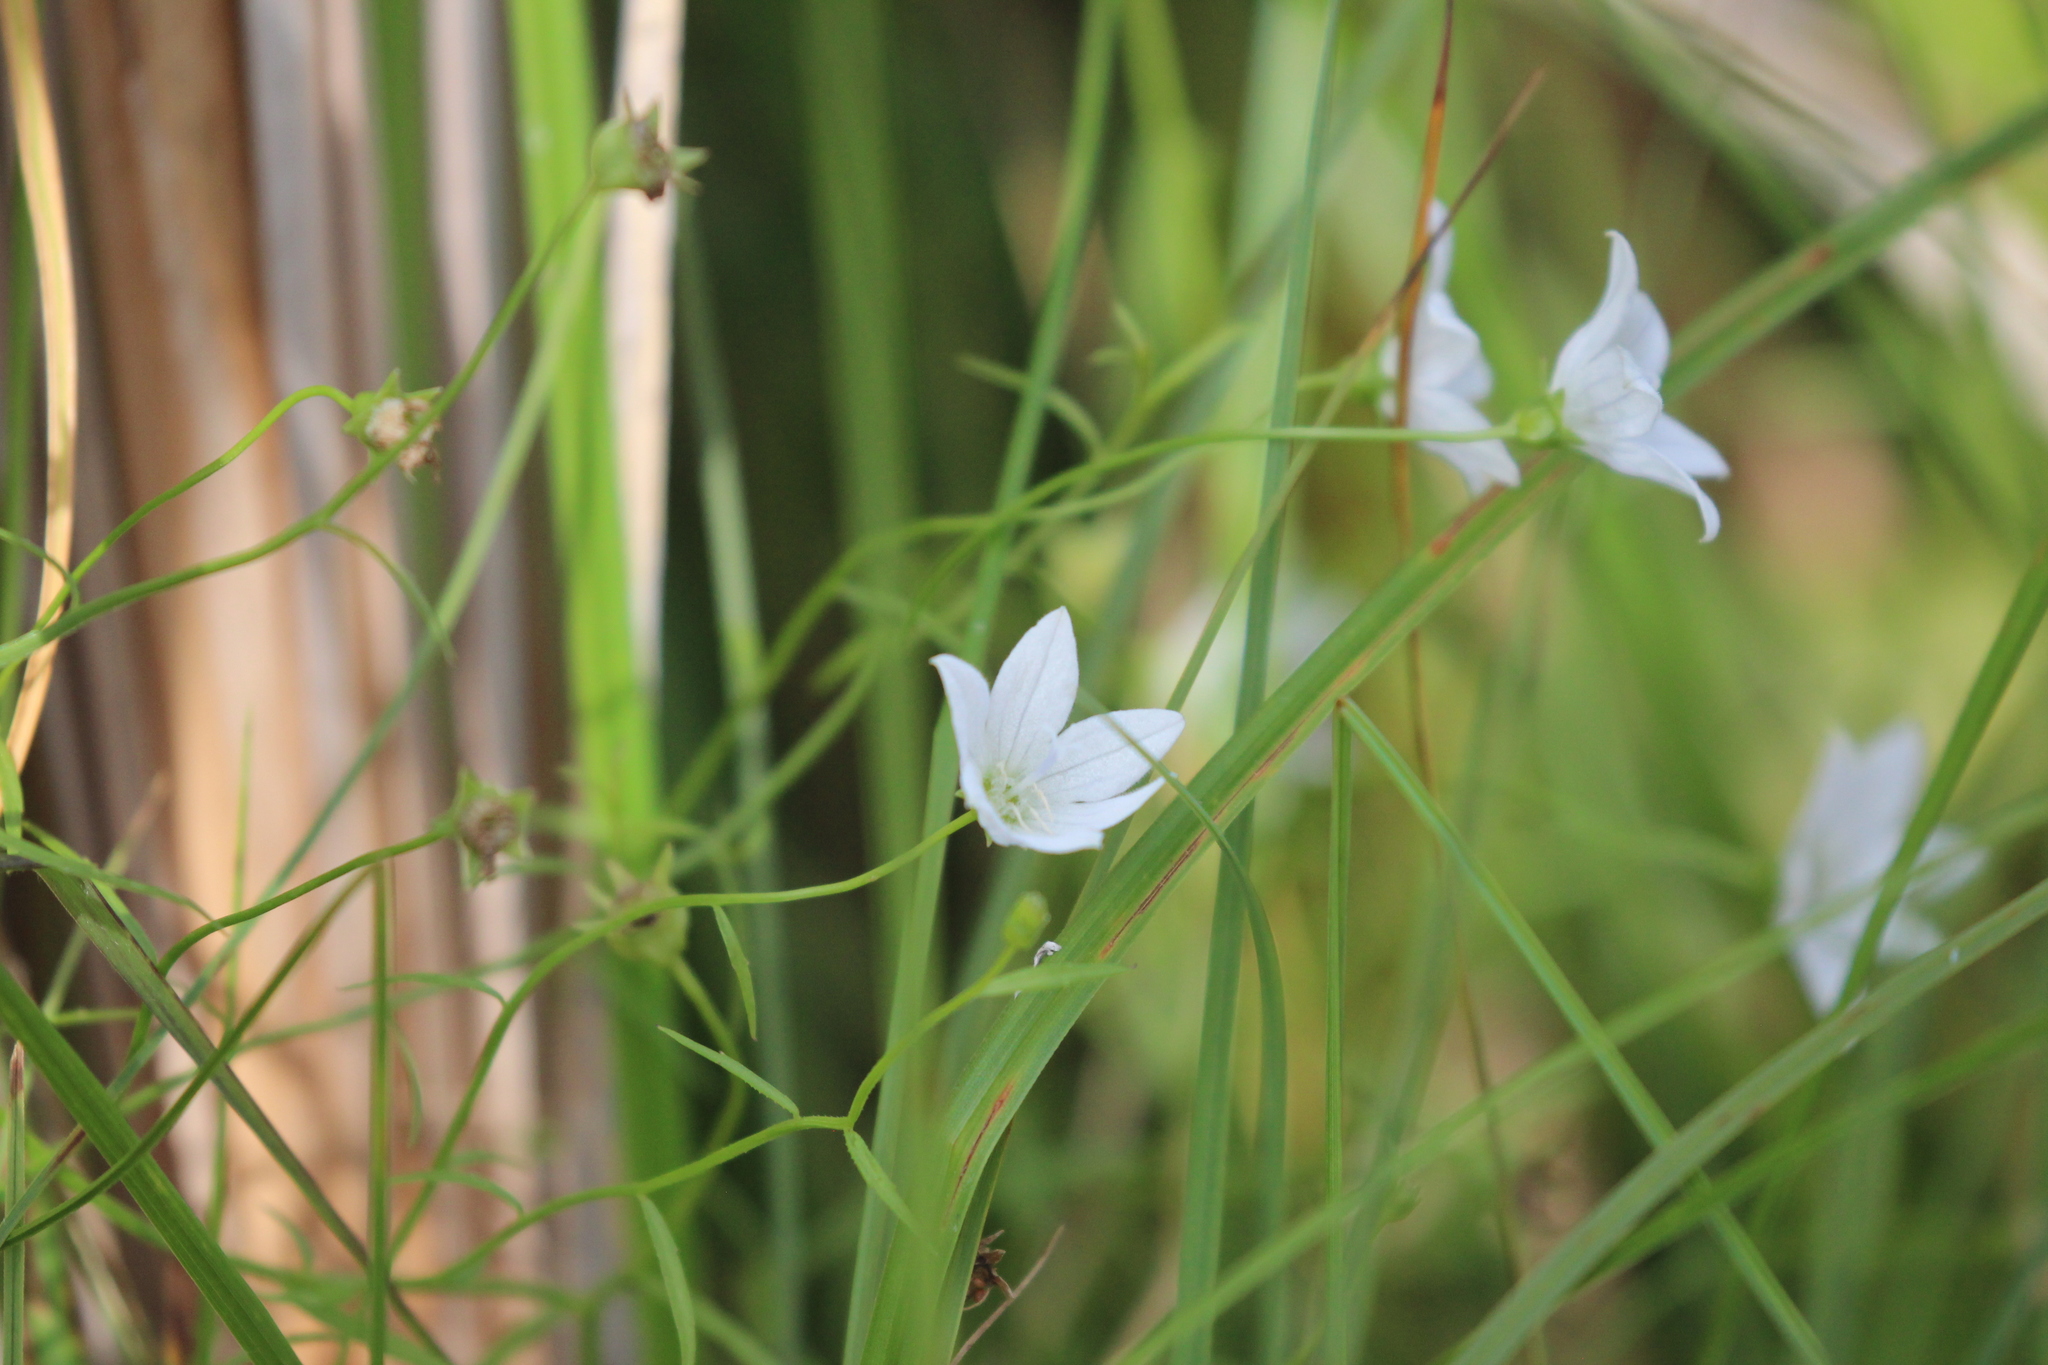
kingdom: Plantae
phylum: Tracheophyta
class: Magnoliopsida
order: Asterales
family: Campanulaceae
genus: Palustricodon
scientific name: Palustricodon aparinoides
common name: Bedstraw bellflower
